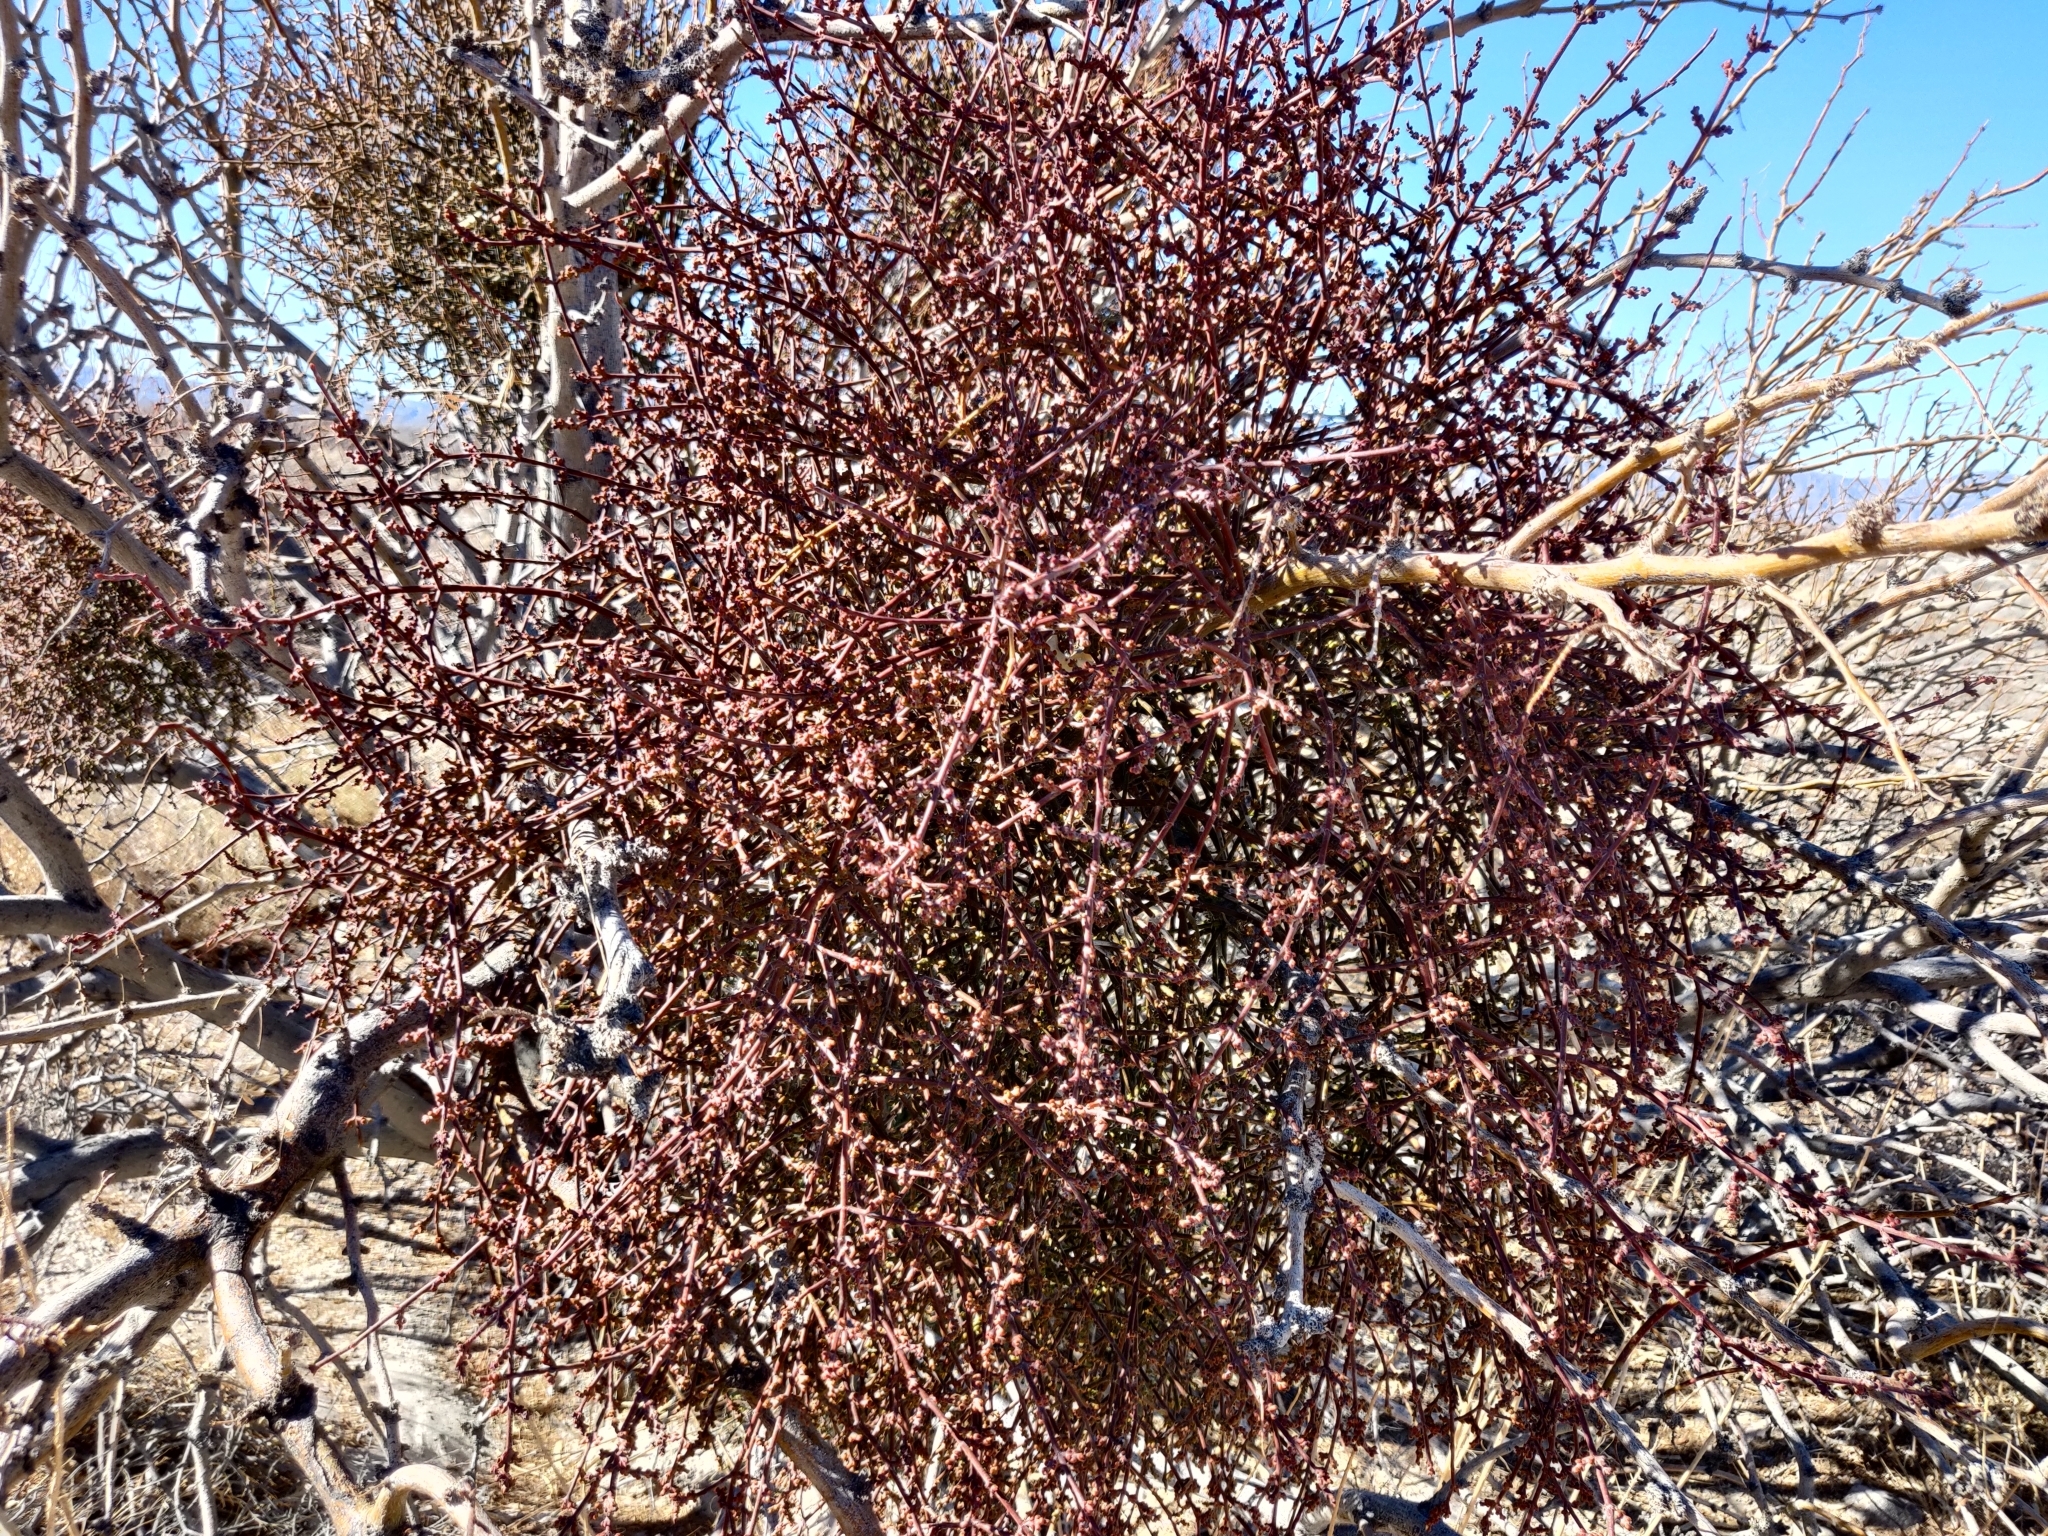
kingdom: Plantae
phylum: Tracheophyta
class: Magnoliopsida
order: Santalales
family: Viscaceae
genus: Phoradendron
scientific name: Phoradendron californicum
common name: Acacia mistletoe
